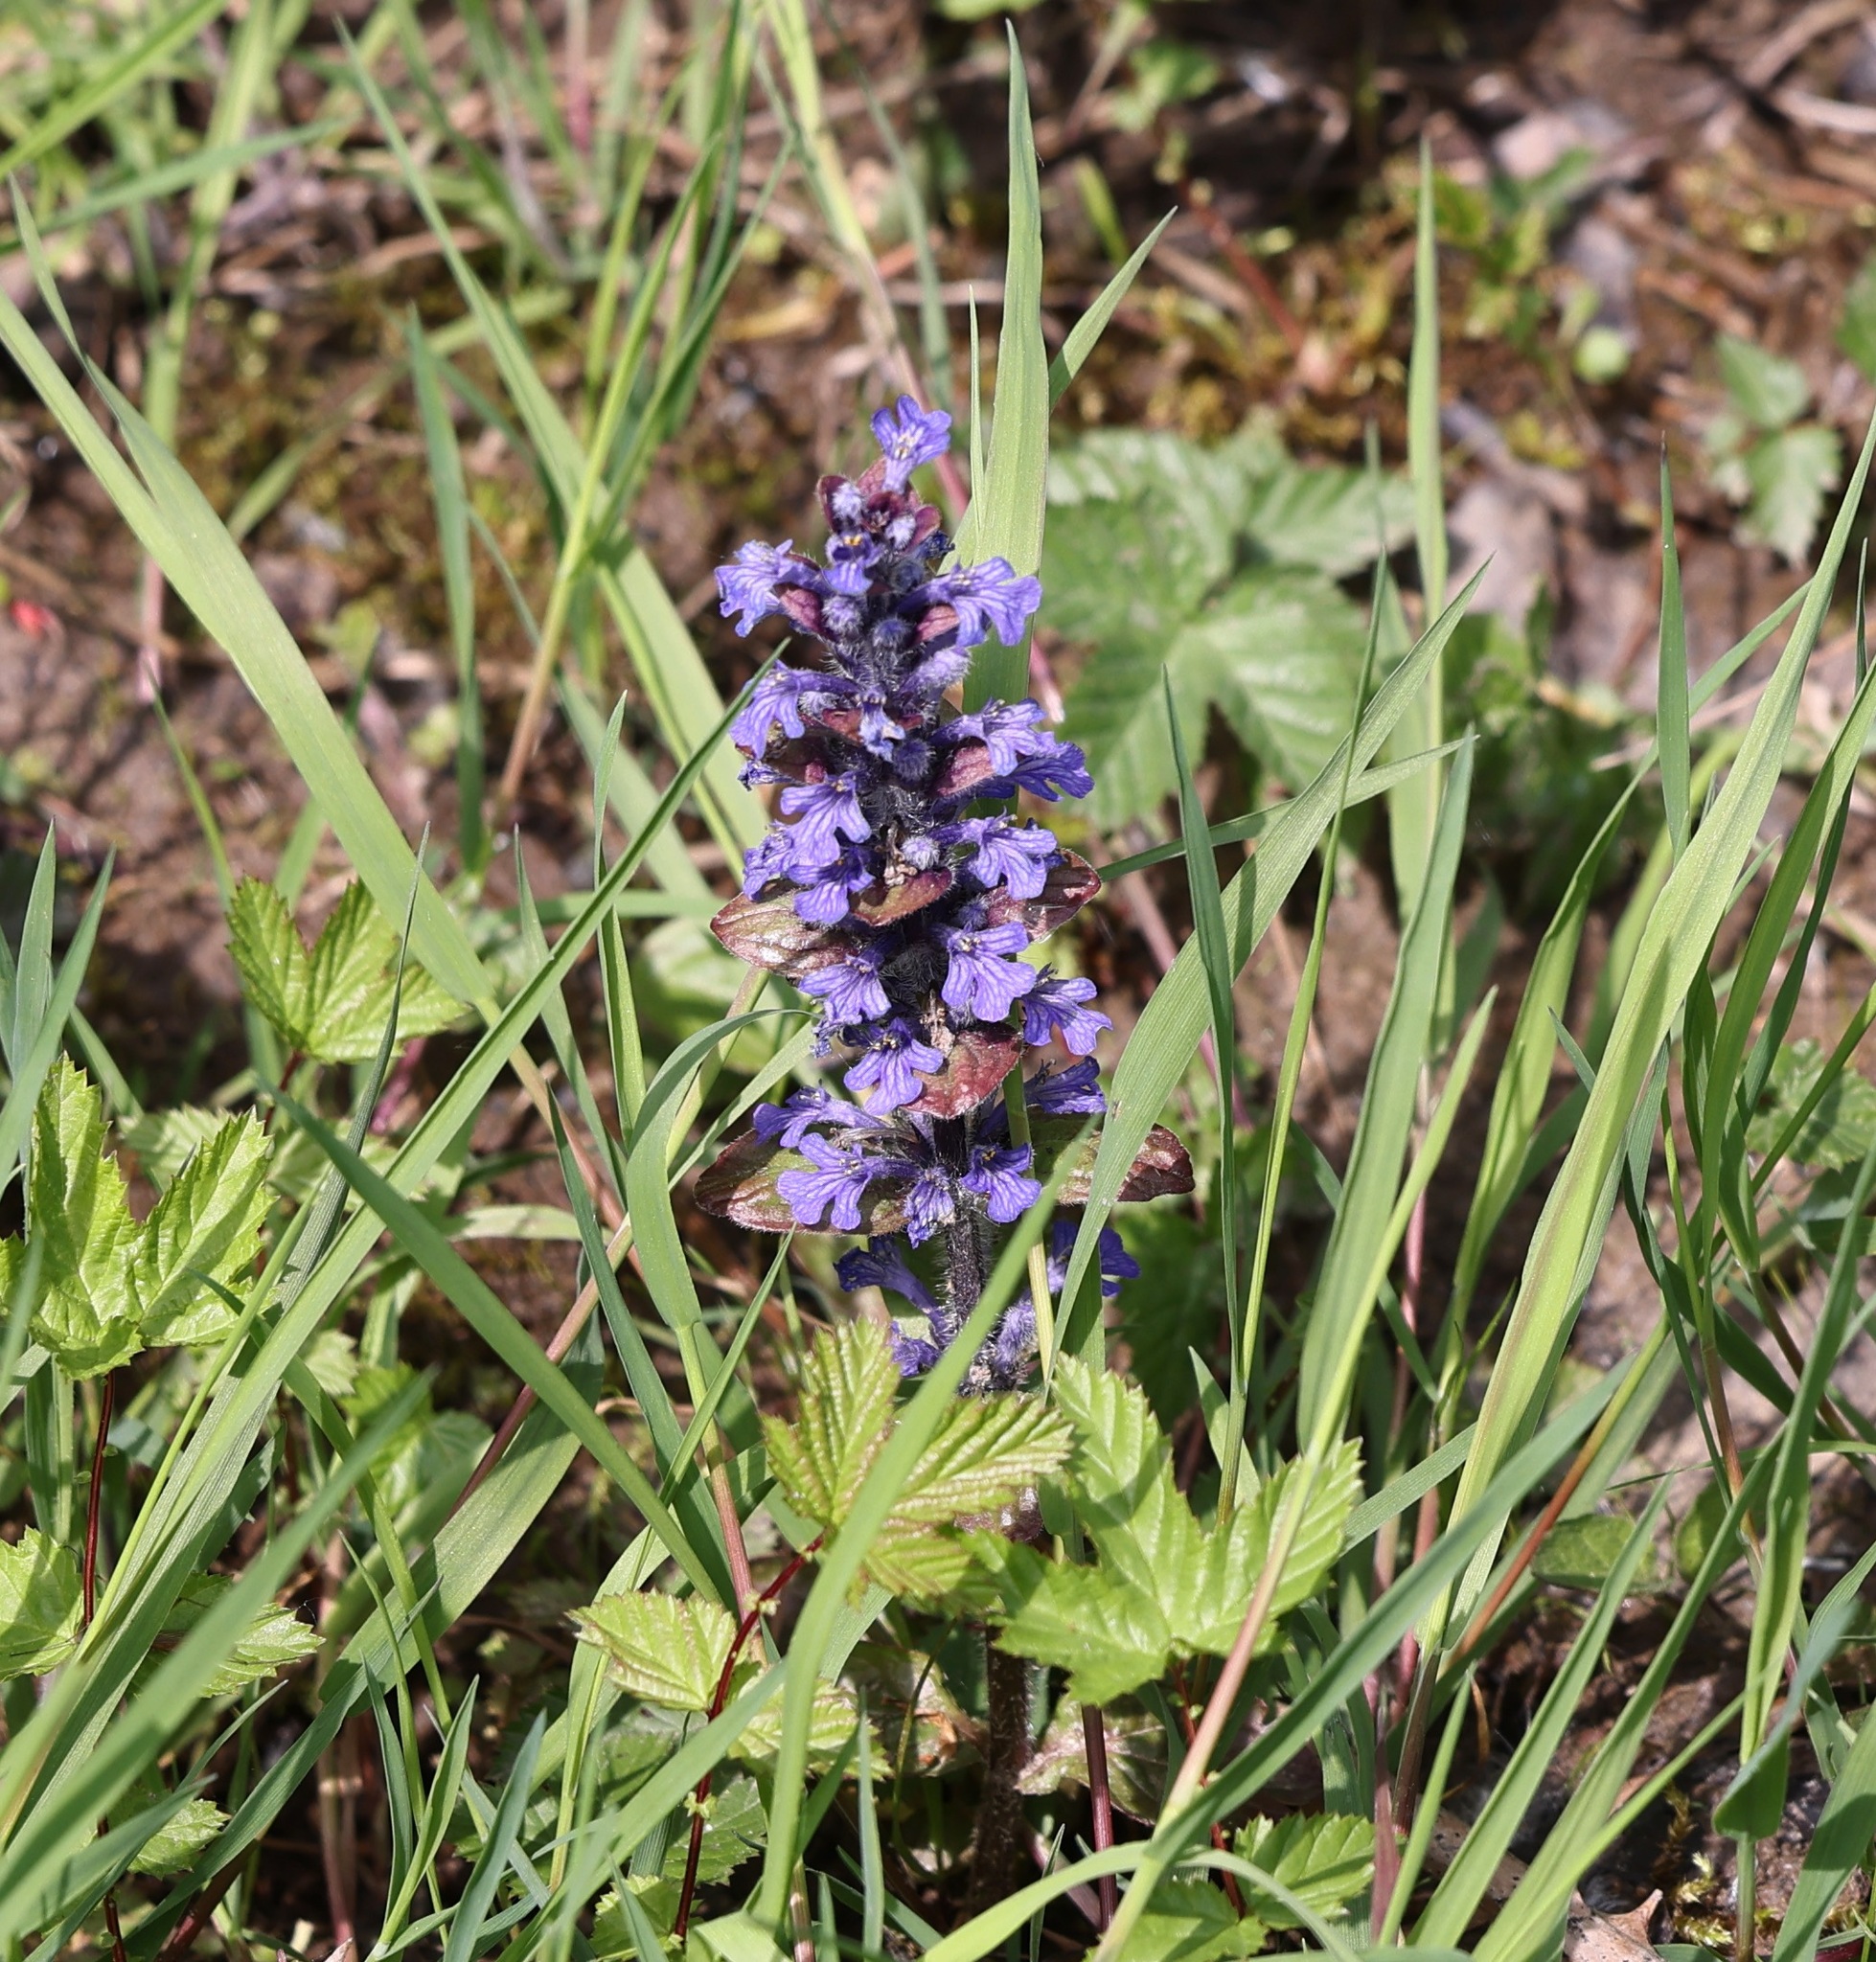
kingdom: Plantae
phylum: Tracheophyta
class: Magnoliopsida
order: Lamiales
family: Lamiaceae
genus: Ajuga
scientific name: Ajuga reptans
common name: Bugle
